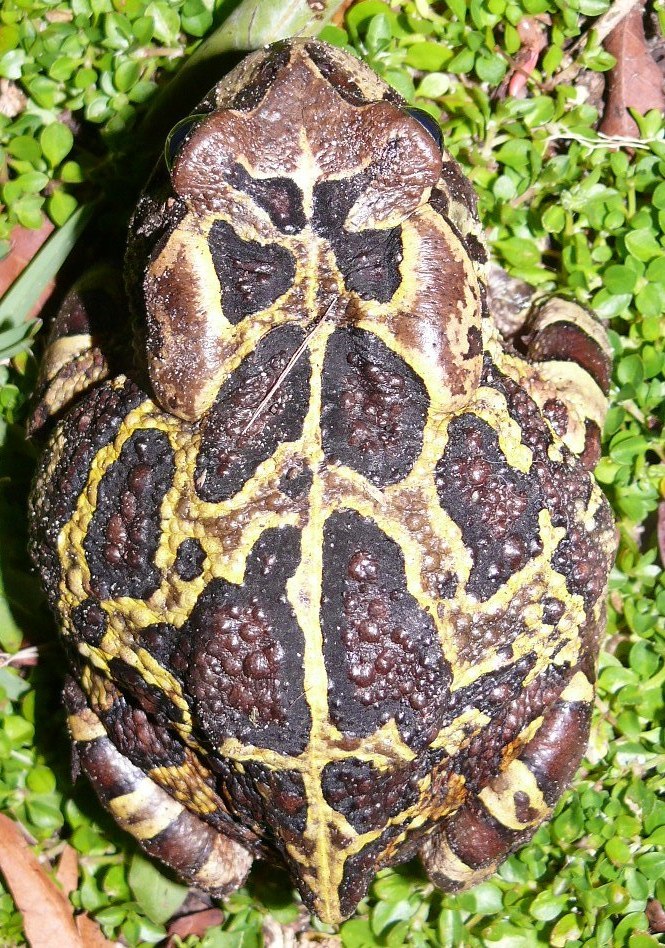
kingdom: Animalia
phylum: Chordata
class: Amphibia
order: Anura
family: Bufonidae
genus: Sclerophrys
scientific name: Sclerophrys pantherina
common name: Panther toad
